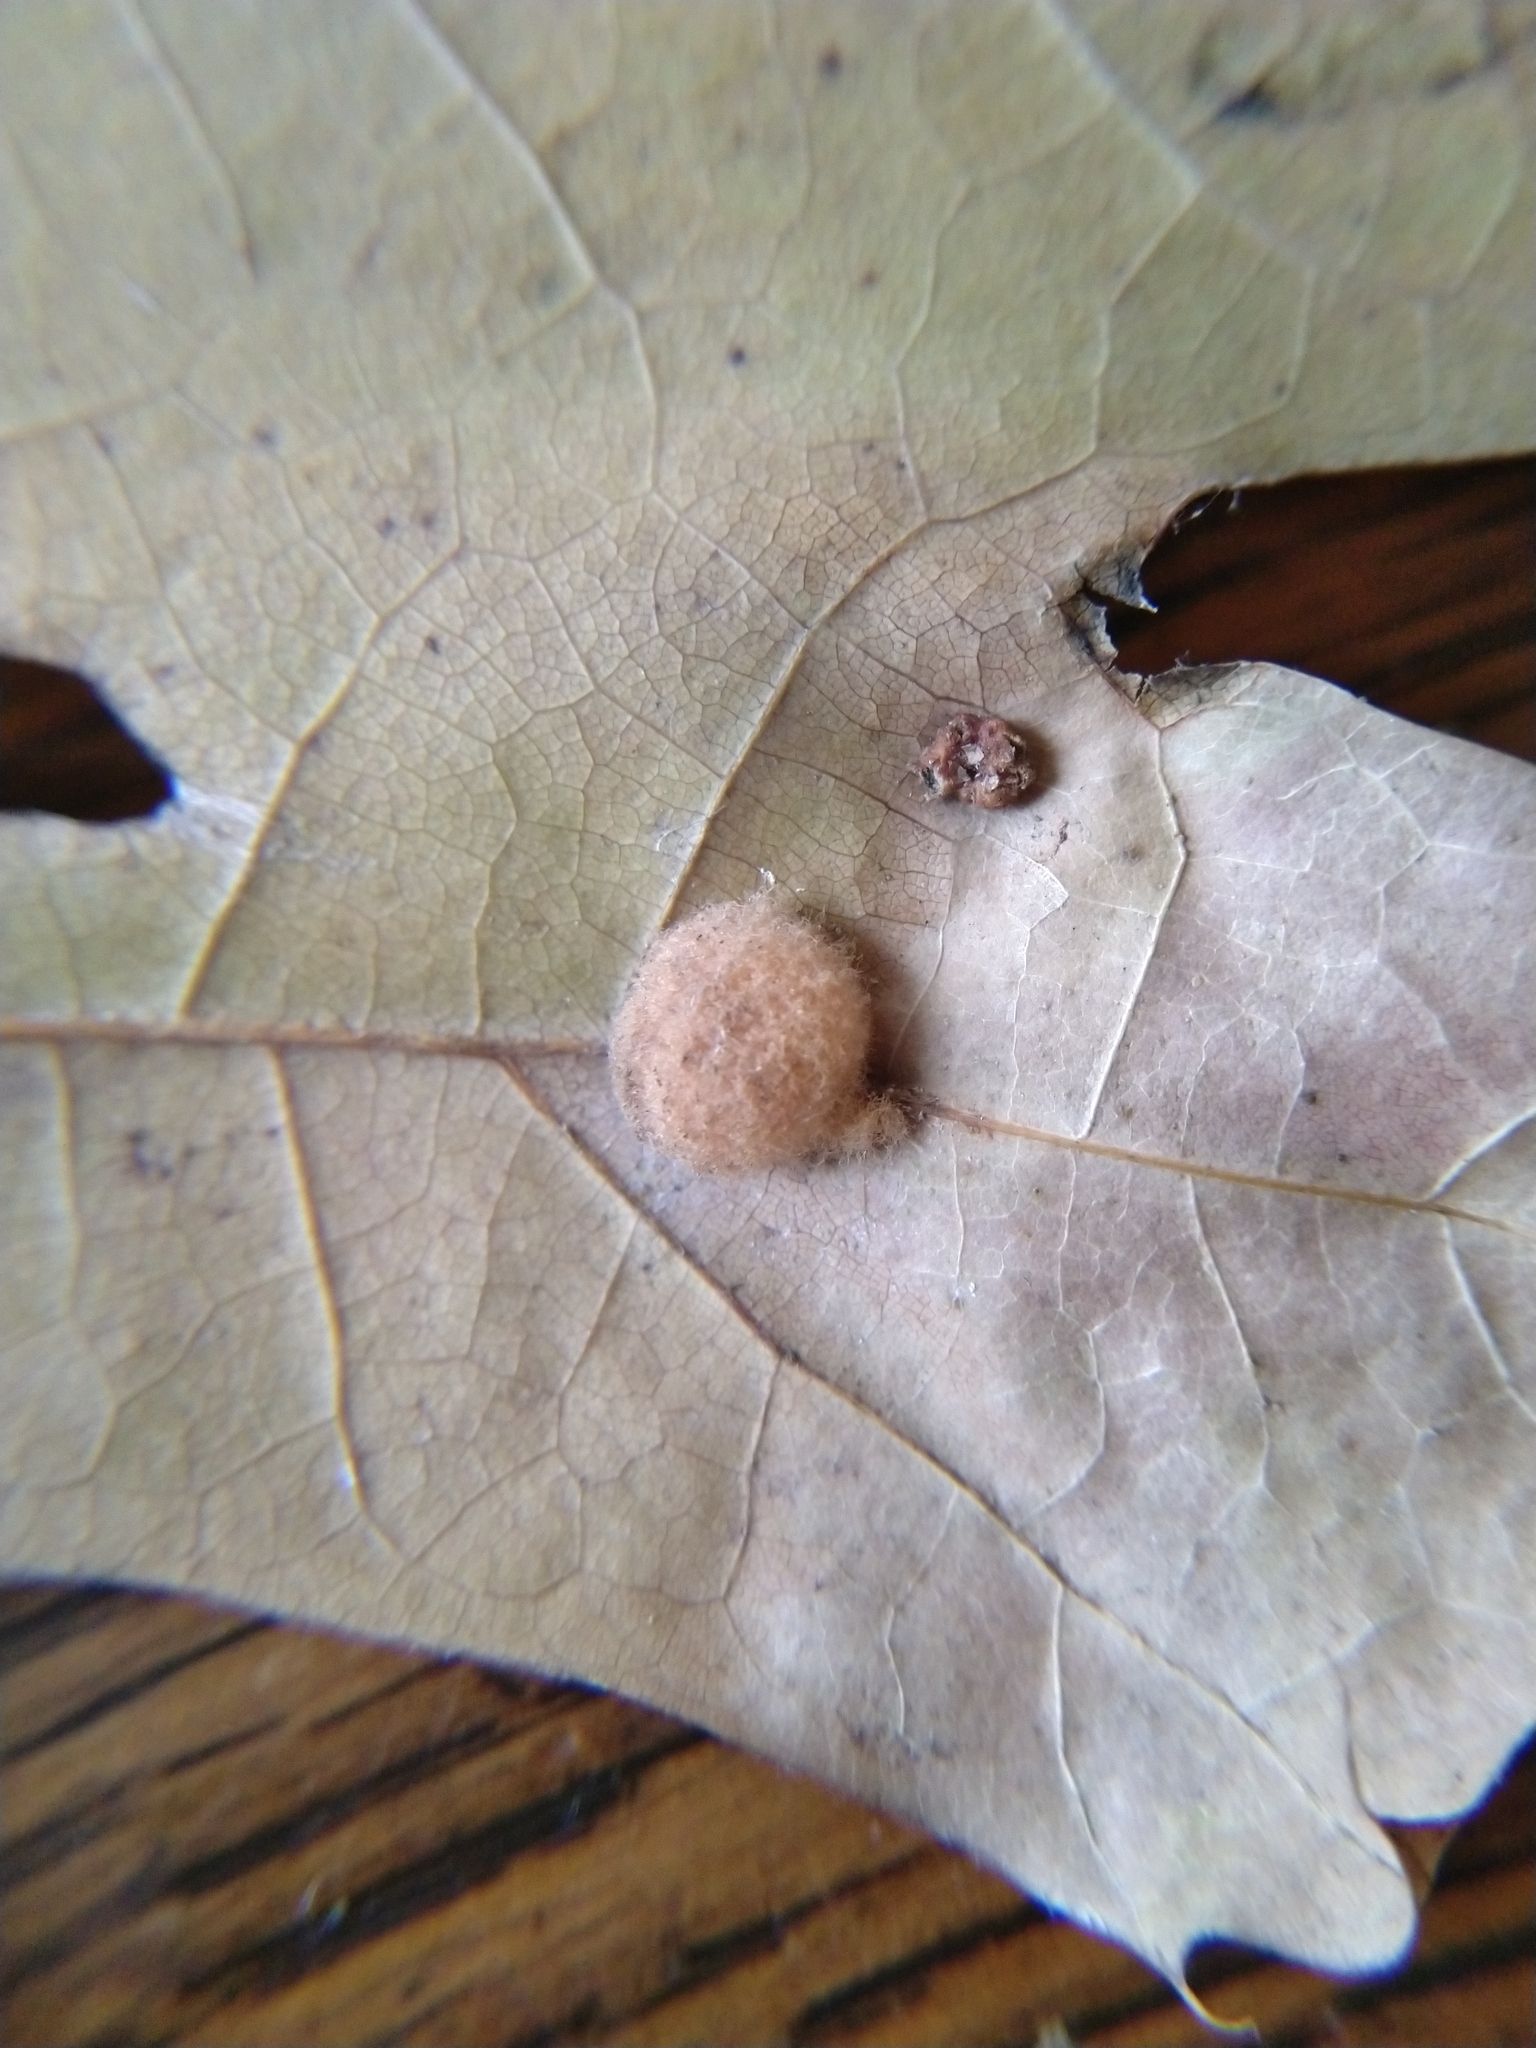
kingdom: Animalia
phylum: Arthropoda
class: Insecta
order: Hymenoptera
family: Cynipidae
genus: Callirhytis
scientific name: Callirhytis
